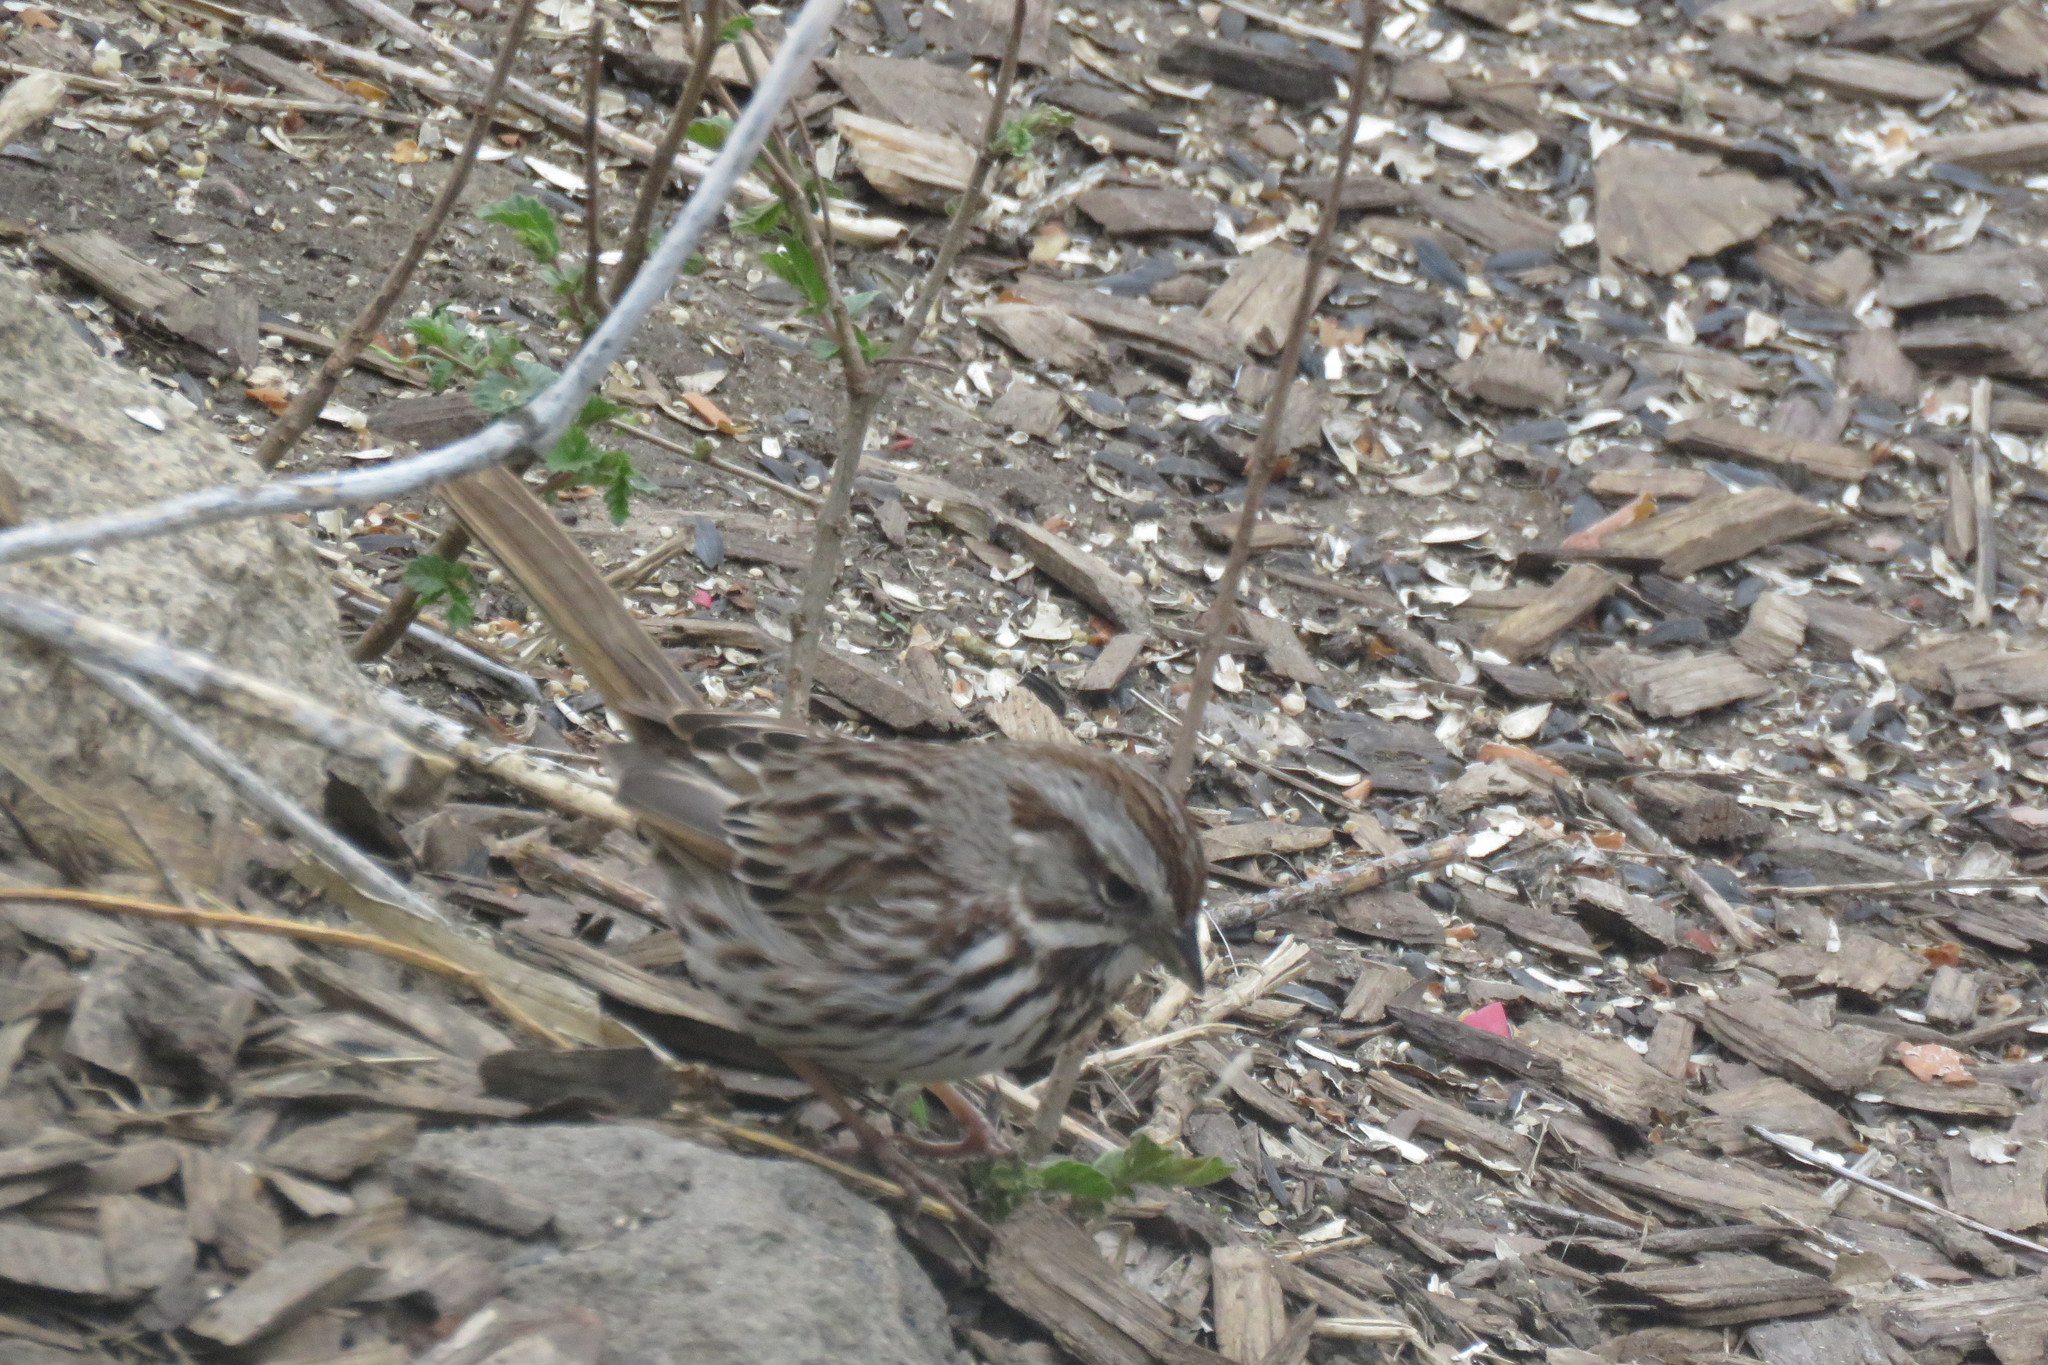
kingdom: Animalia
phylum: Chordata
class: Aves
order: Passeriformes
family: Passerellidae
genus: Melospiza
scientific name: Melospiza melodia
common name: Song sparrow
